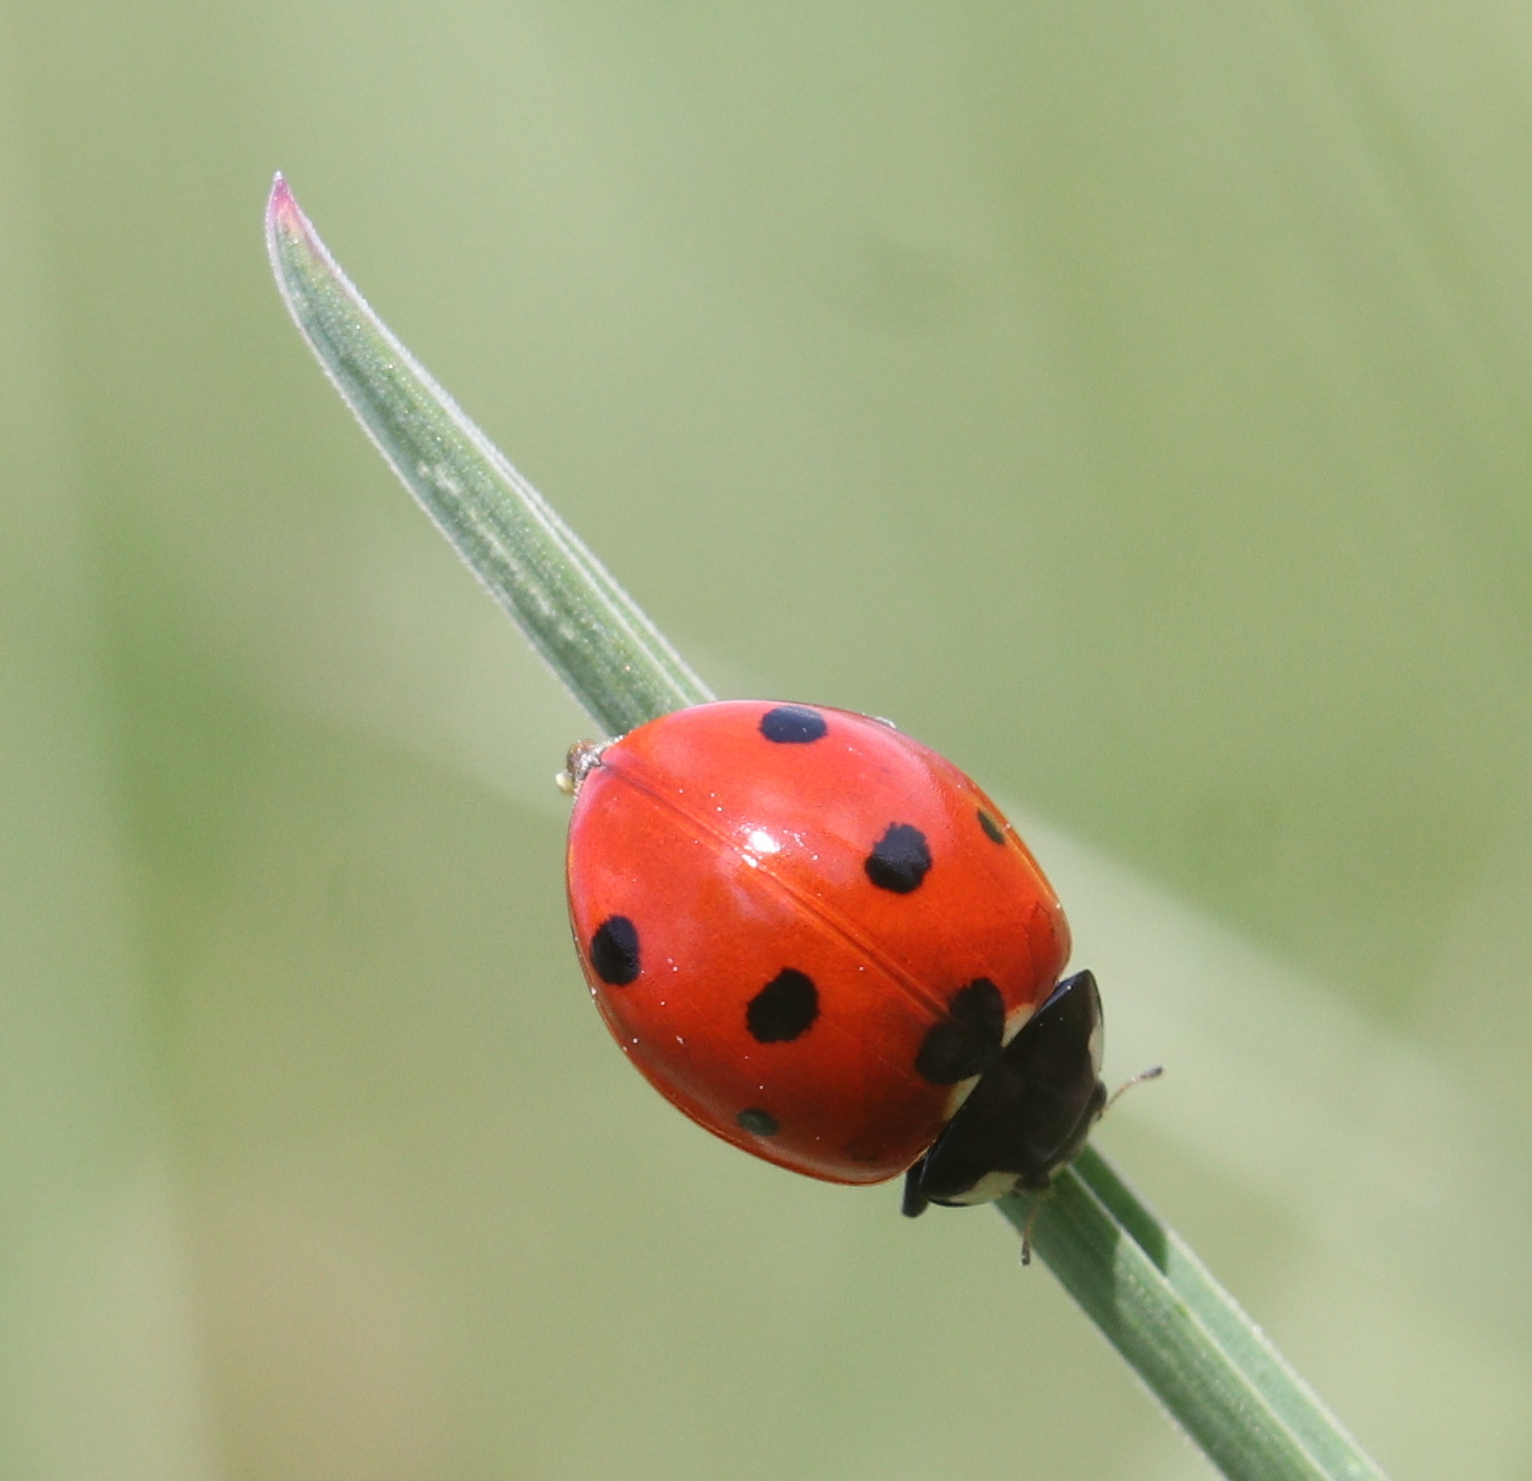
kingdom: Animalia
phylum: Arthropoda
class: Insecta
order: Coleoptera
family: Coccinellidae
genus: Coccinella
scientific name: Coccinella septempunctata
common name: Sevenspotted lady beetle
